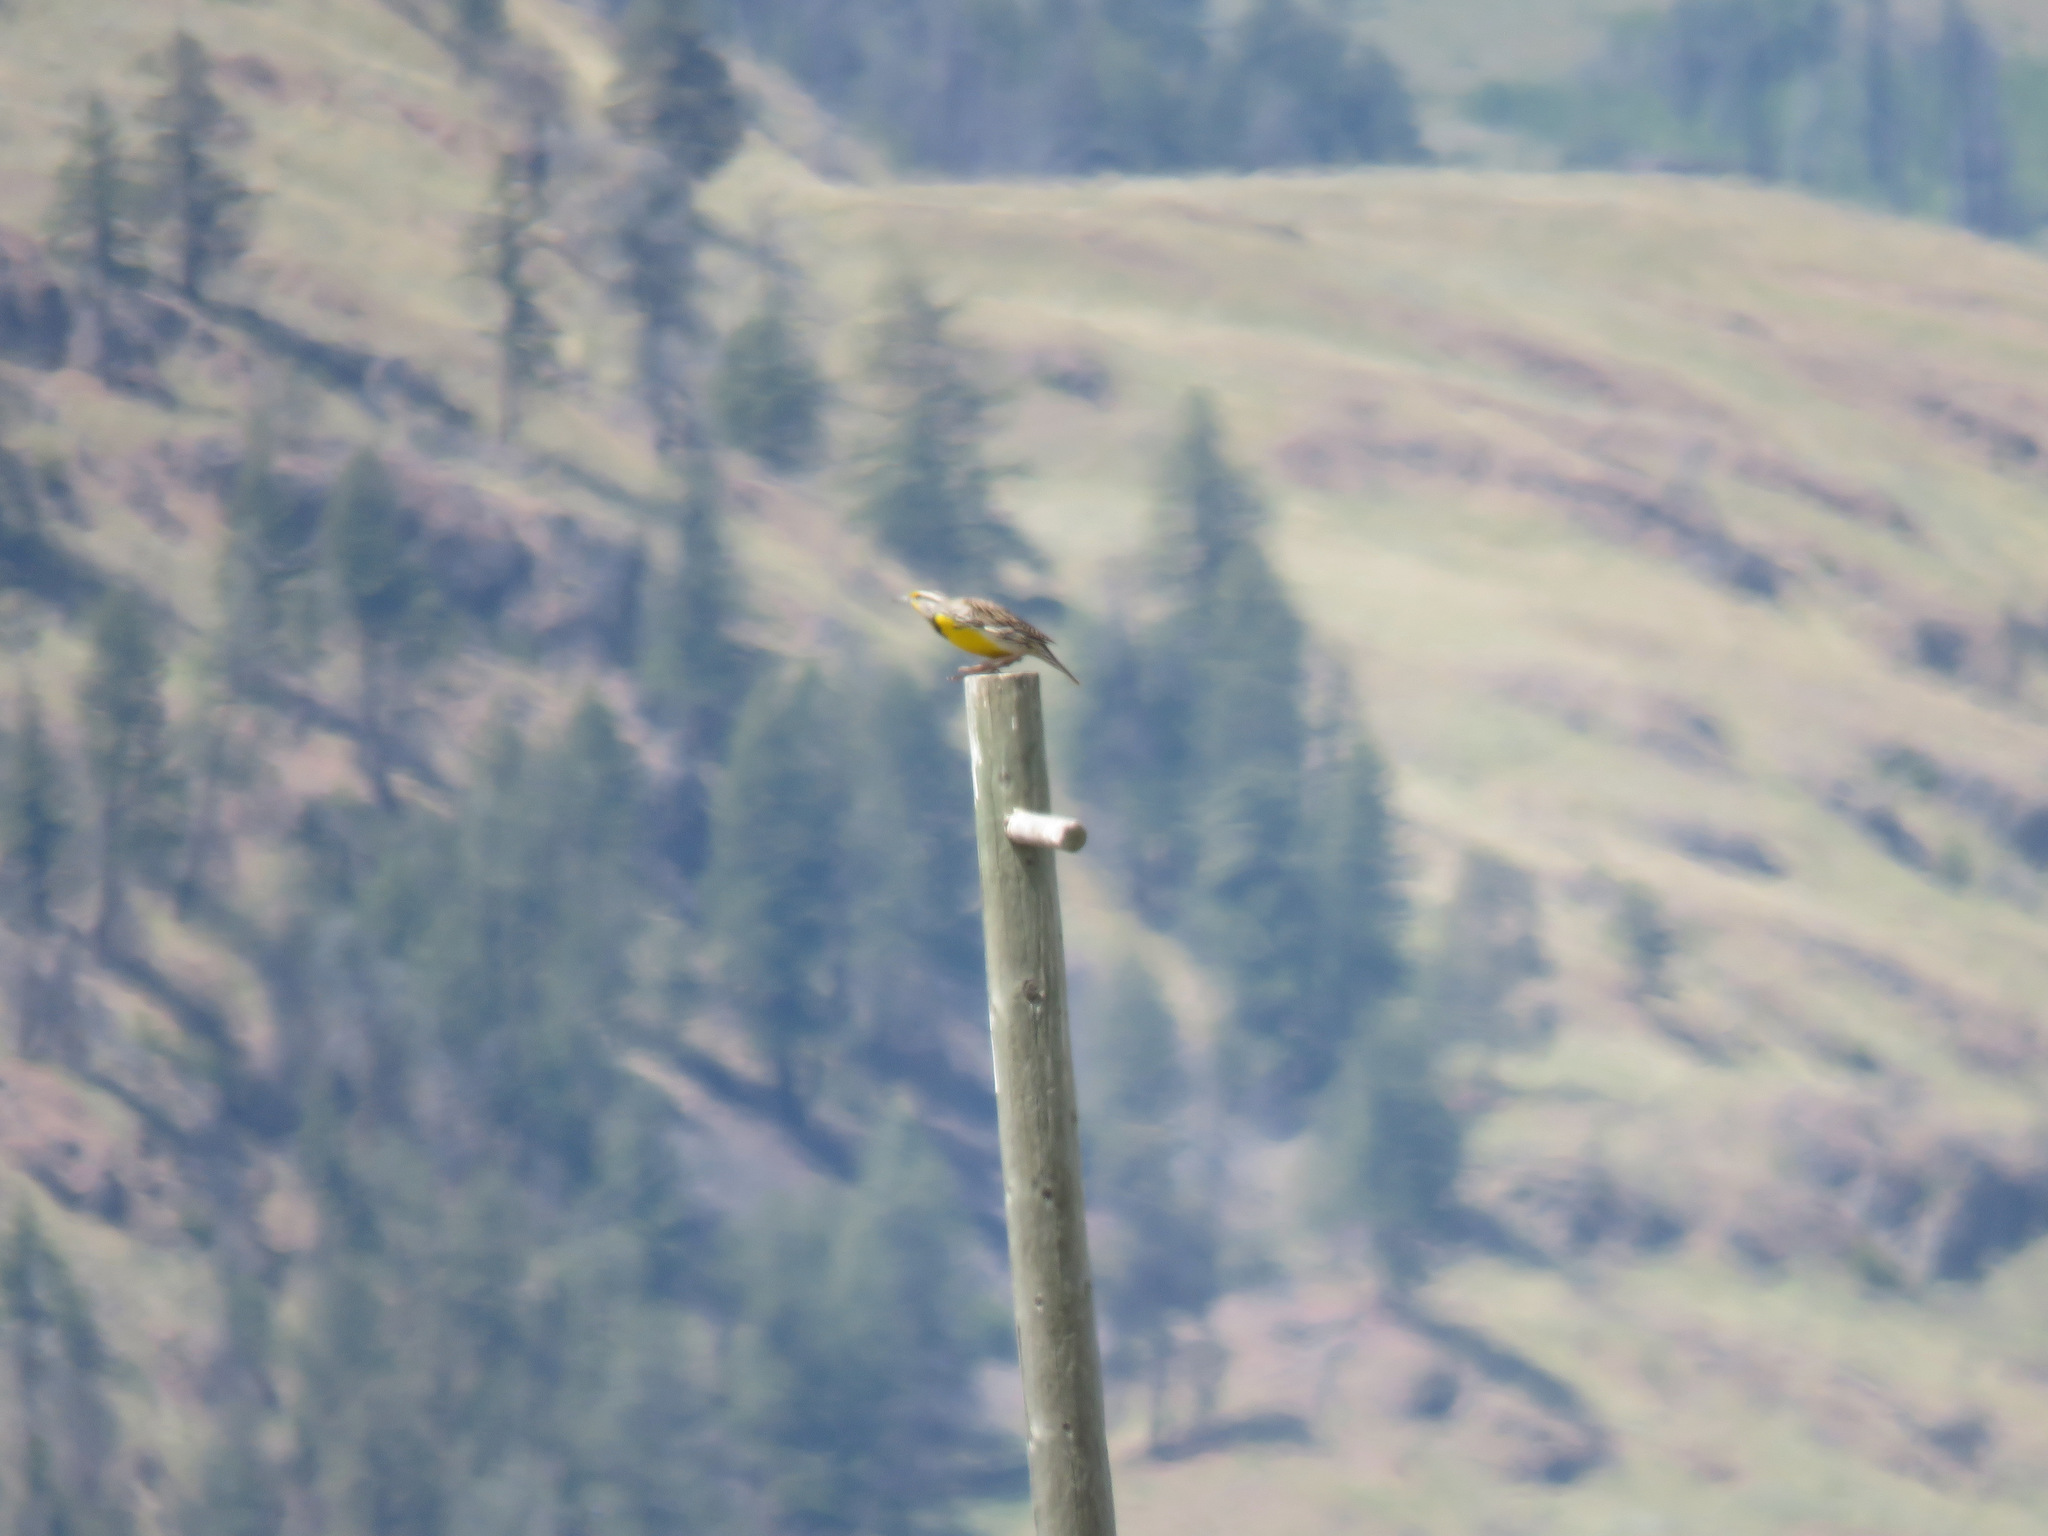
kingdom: Animalia
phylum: Chordata
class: Aves
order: Passeriformes
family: Icteridae
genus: Sturnella
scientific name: Sturnella neglecta
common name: Western meadowlark
